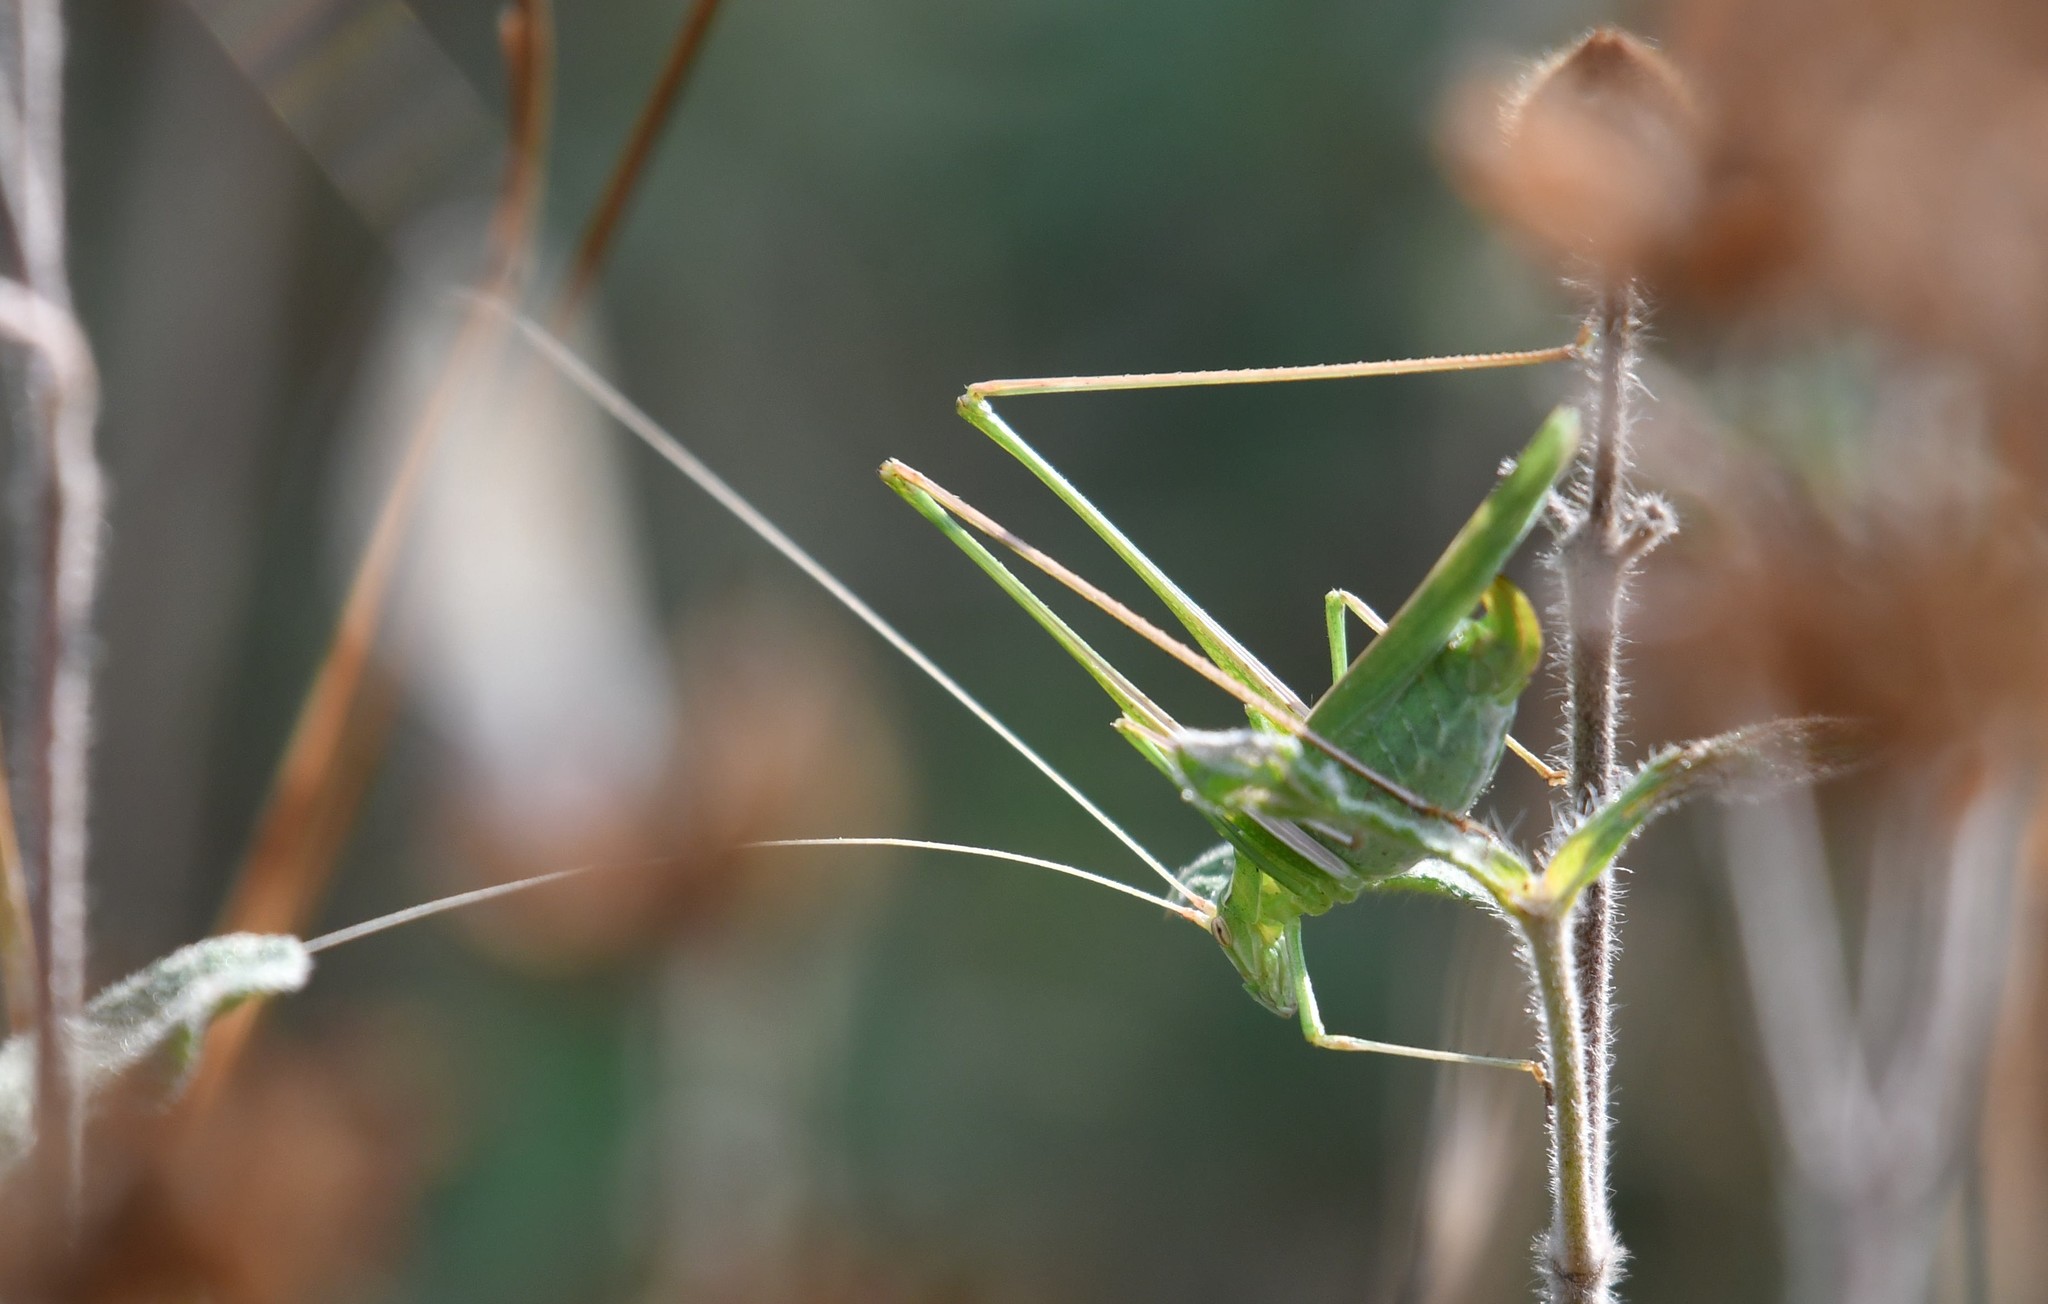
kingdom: Animalia
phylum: Arthropoda
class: Insecta
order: Orthoptera
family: Tettigoniidae
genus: Tylopsis
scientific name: Tylopsis lilifolia
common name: Lily bush-cricket
